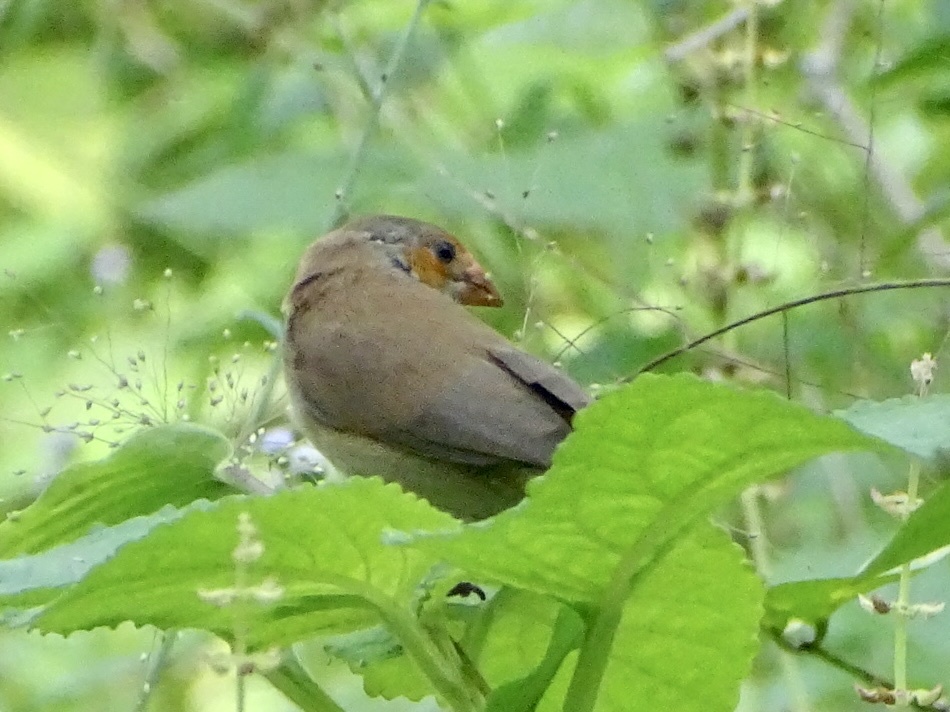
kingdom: Animalia
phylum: Chordata
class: Aves
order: Passeriformes
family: Estrildidae
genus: Estrilda
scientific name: Estrilda melpoda
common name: Orange-cheeked waxbill
